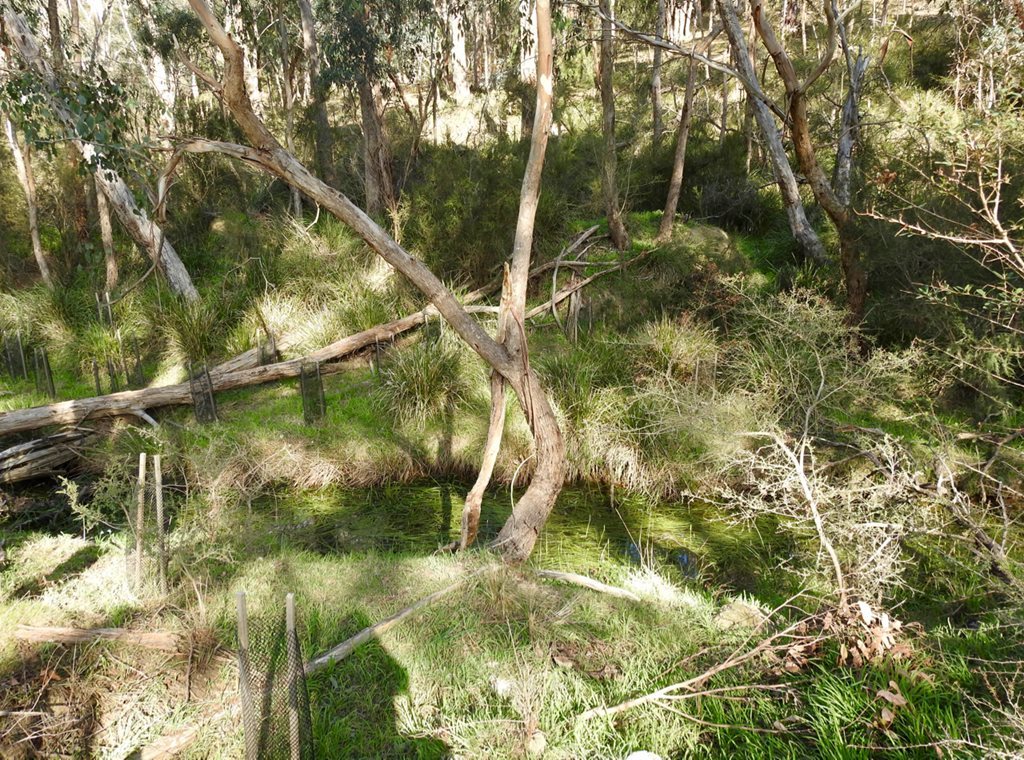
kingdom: Plantae
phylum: Tracheophyta
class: Liliopsida
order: Alismatales
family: Juncaginaceae
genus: Cycnogeton
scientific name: Cycnogeton procerum
